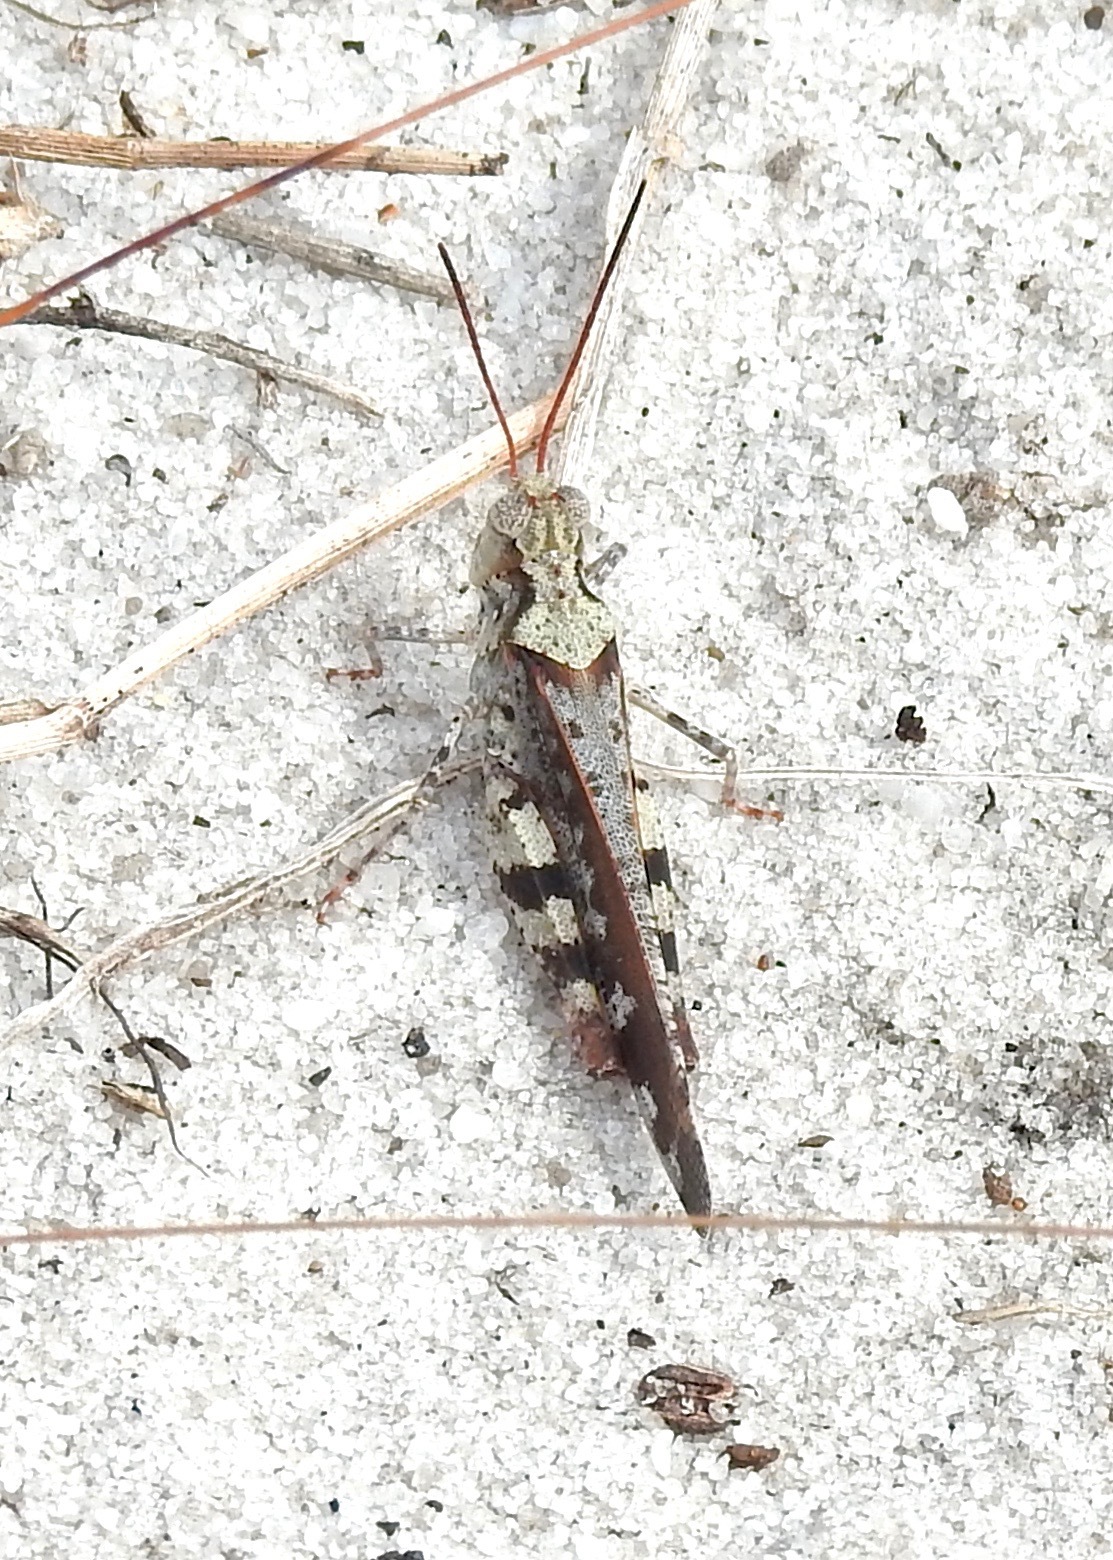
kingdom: Animalia
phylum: Arthropoda
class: Insecta
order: Orthoptera
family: Acrididae
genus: Spharagemon
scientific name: Spharagemon marmoratum
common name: Marbled grasshopper
